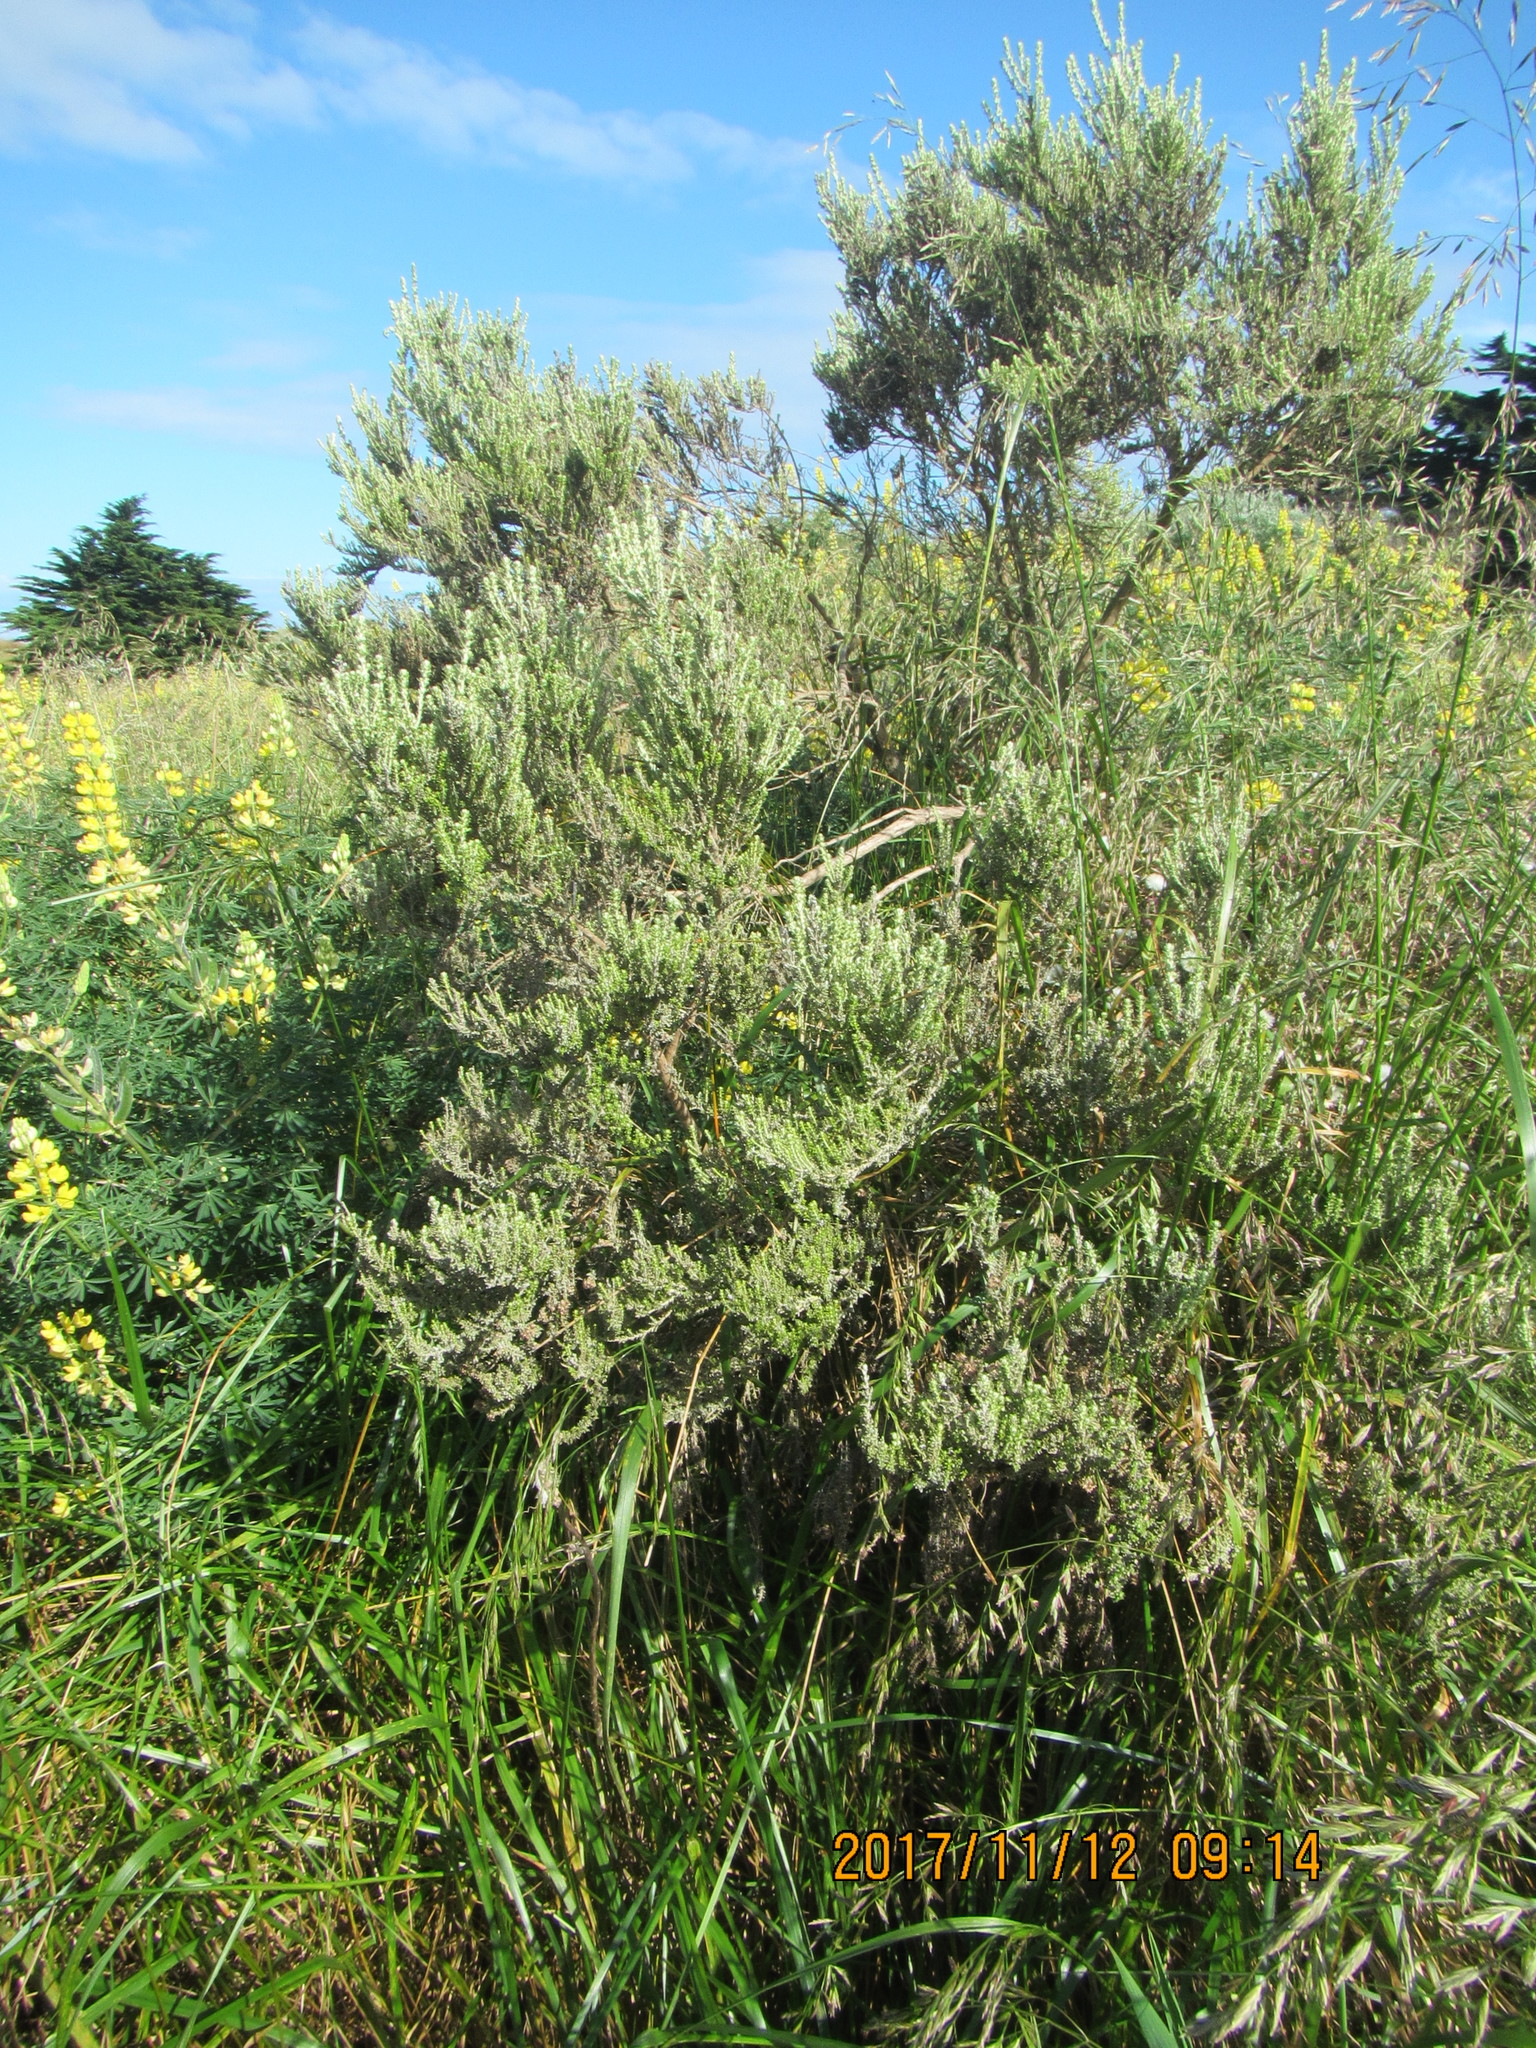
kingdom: Plantae
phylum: Tracheophyta
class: Magnoliopsida
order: Asterales
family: Asteraceae
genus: Ozothamnus
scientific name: Ozothamnus leptophyllus
